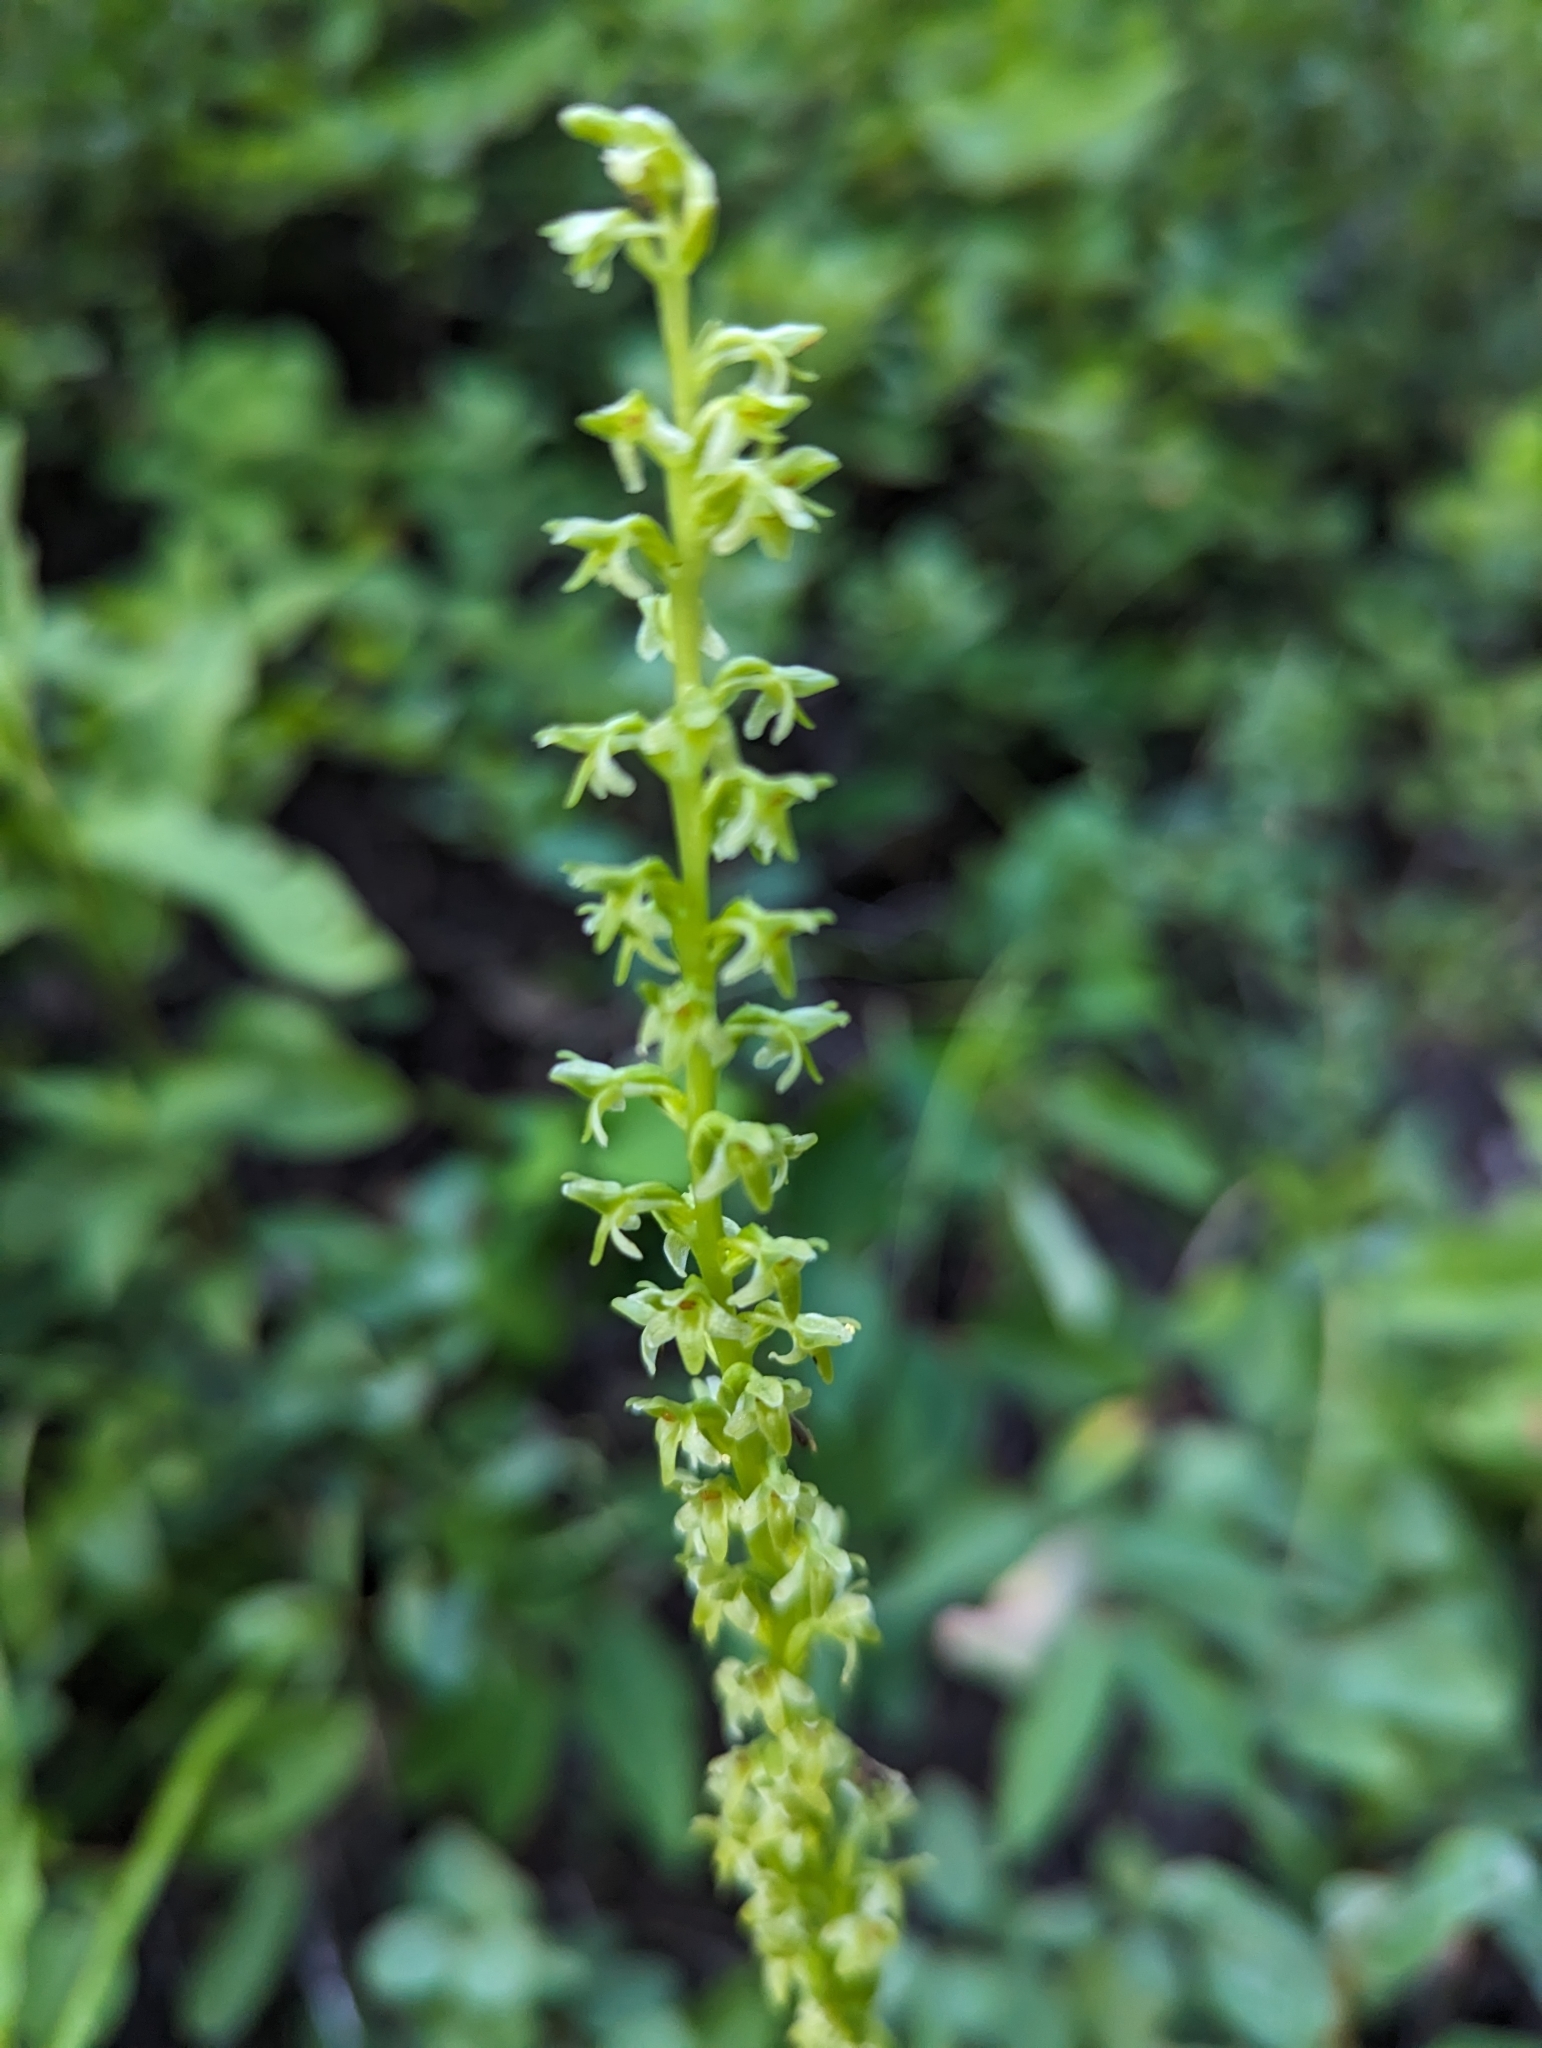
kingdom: Plantae
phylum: Tracheophyta
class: Liliopsida
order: Asparagales
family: Orchidaceae
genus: Platanthera
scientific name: Platanthera unalascensis
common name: Alaska bog orchid
